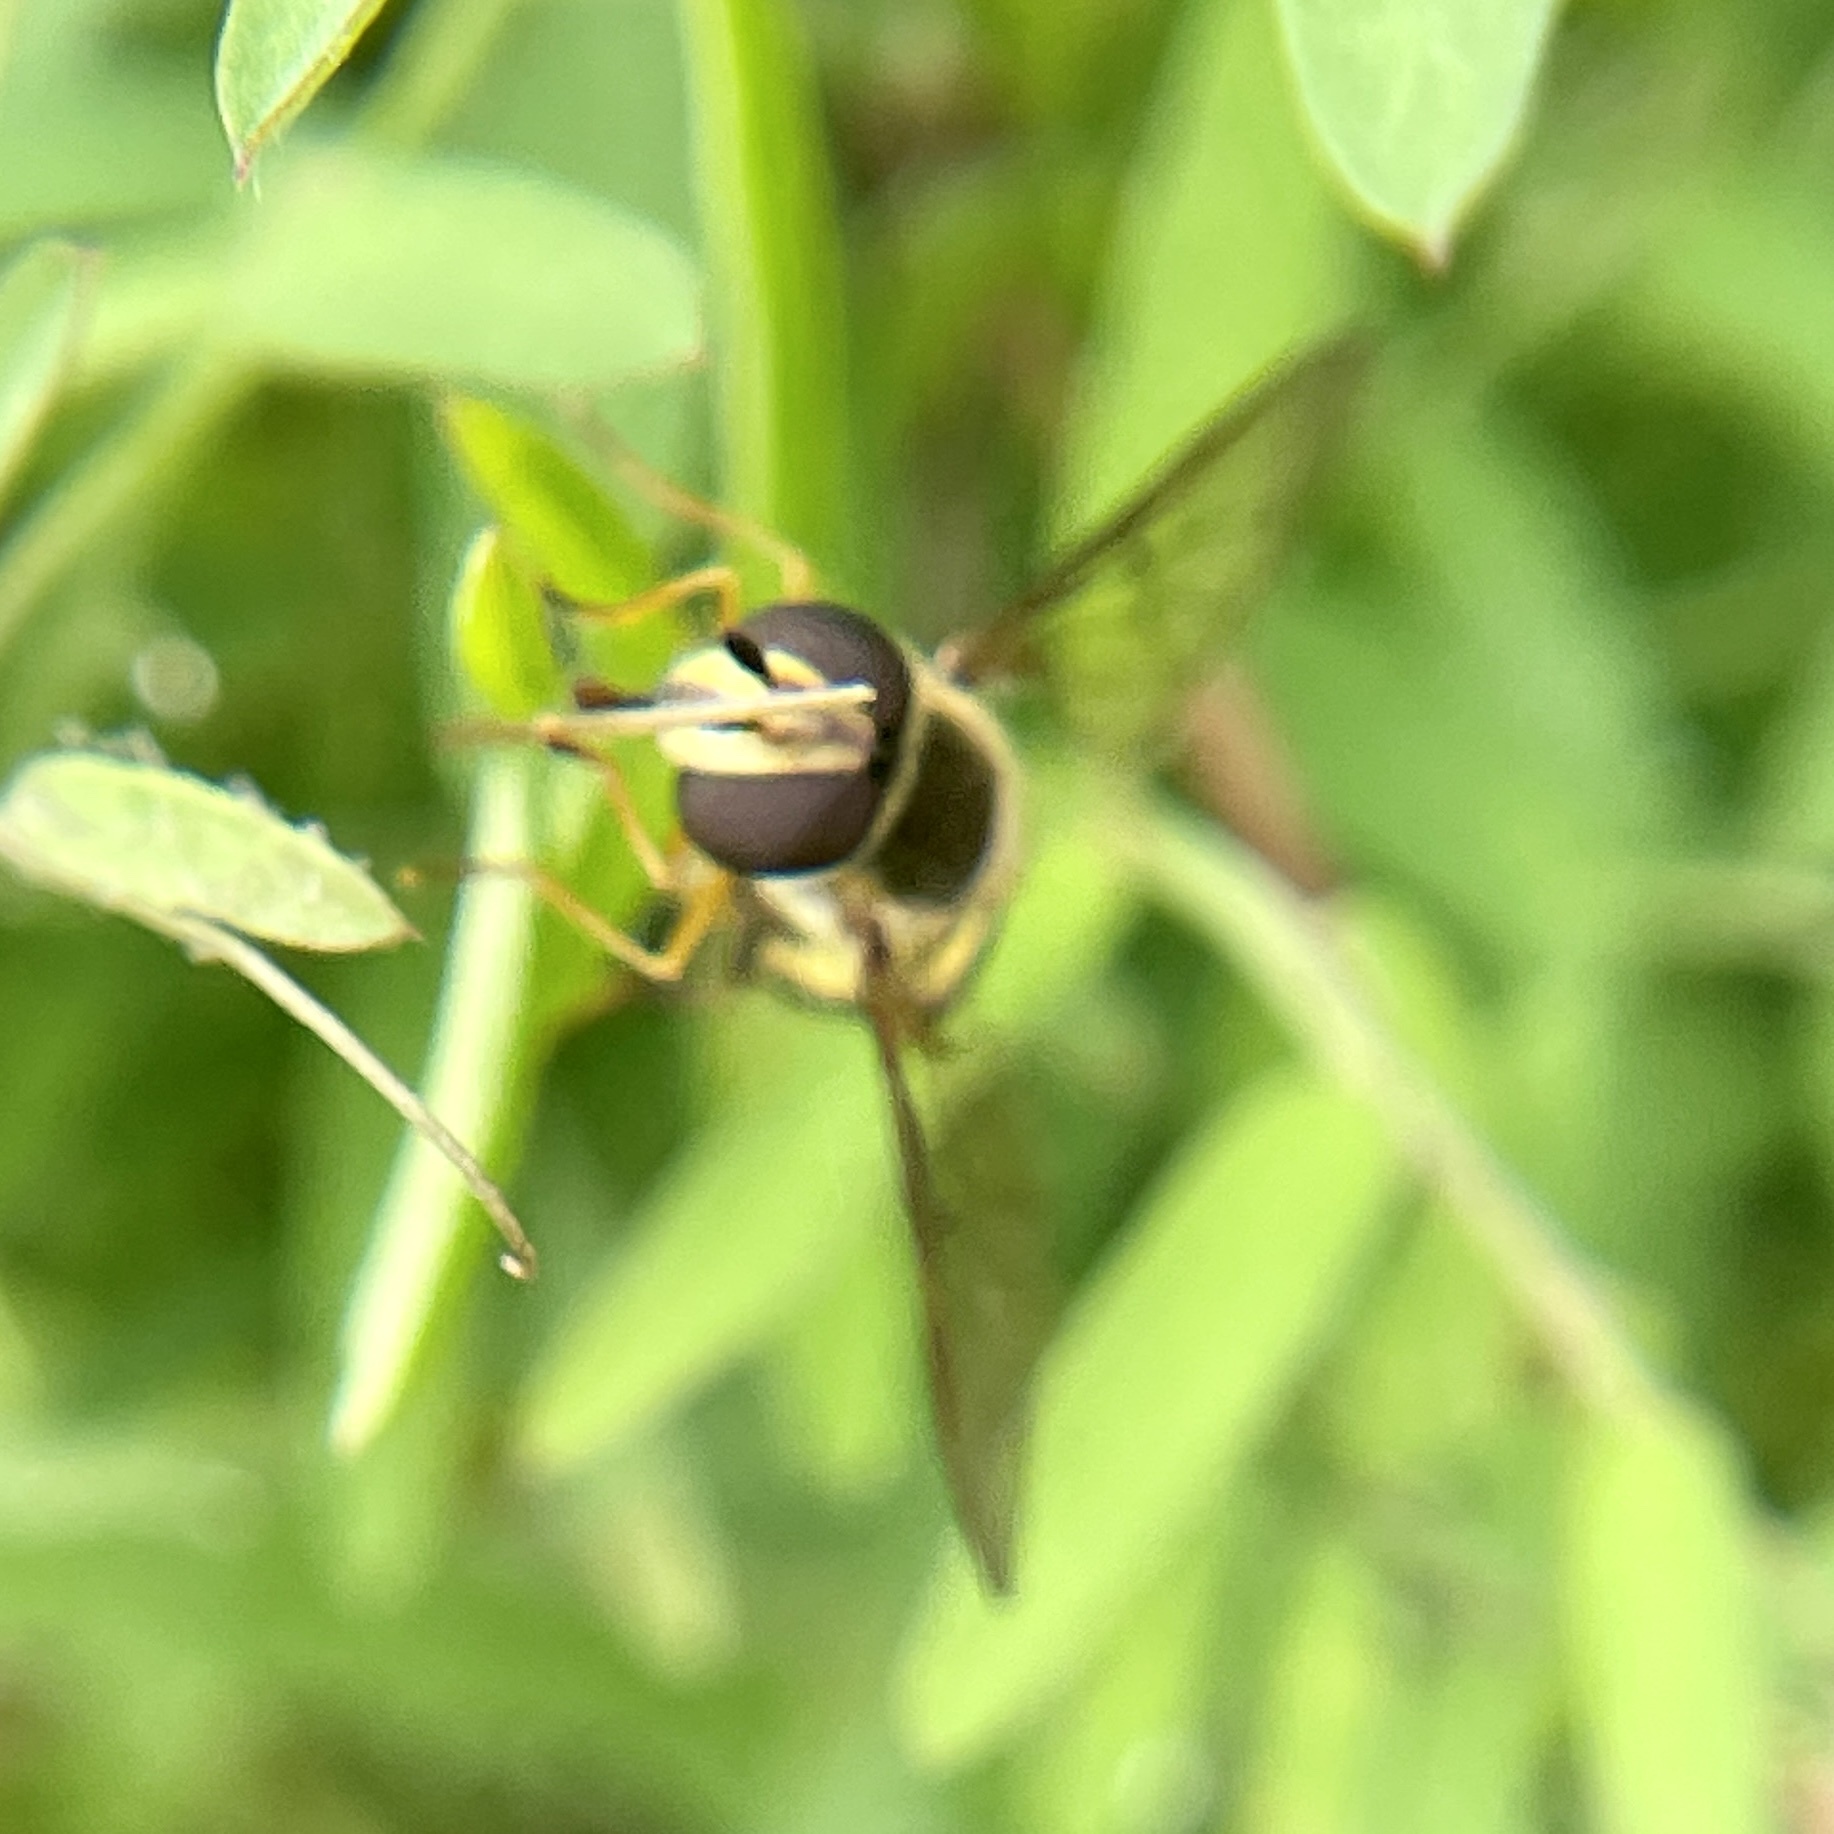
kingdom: Animalia
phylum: Arthropoda
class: Insecta
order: Diptera
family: Syrphidae
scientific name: Syrphidae
